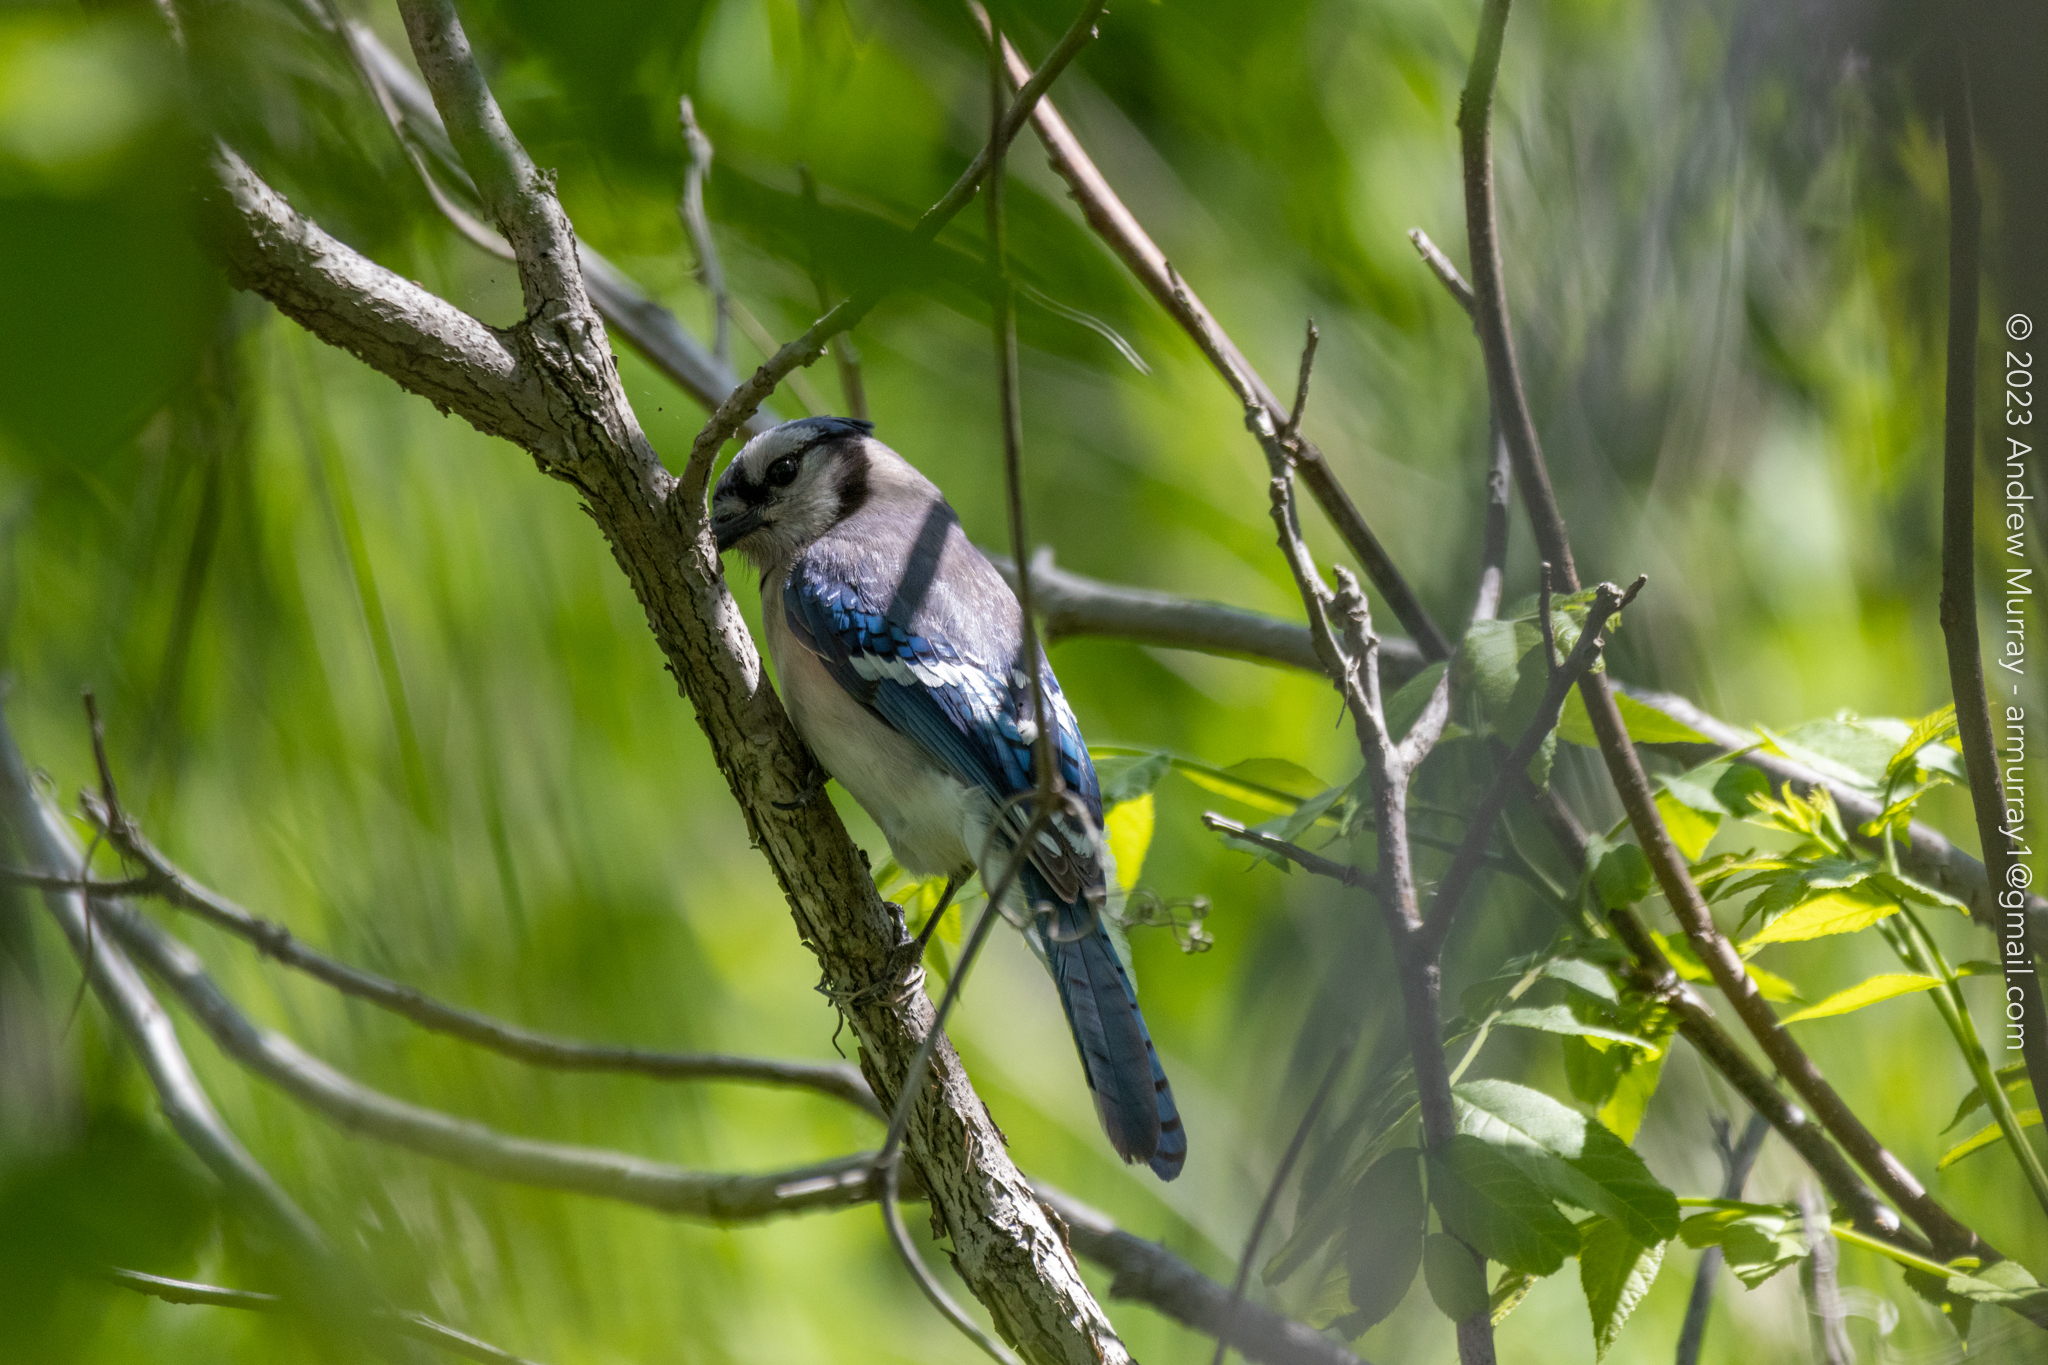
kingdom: Animalia
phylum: Chordata
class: Aves
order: Passeriformes
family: Corvidae
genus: Cyanocitta
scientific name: Cyanocitta cristata
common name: Blue jay
